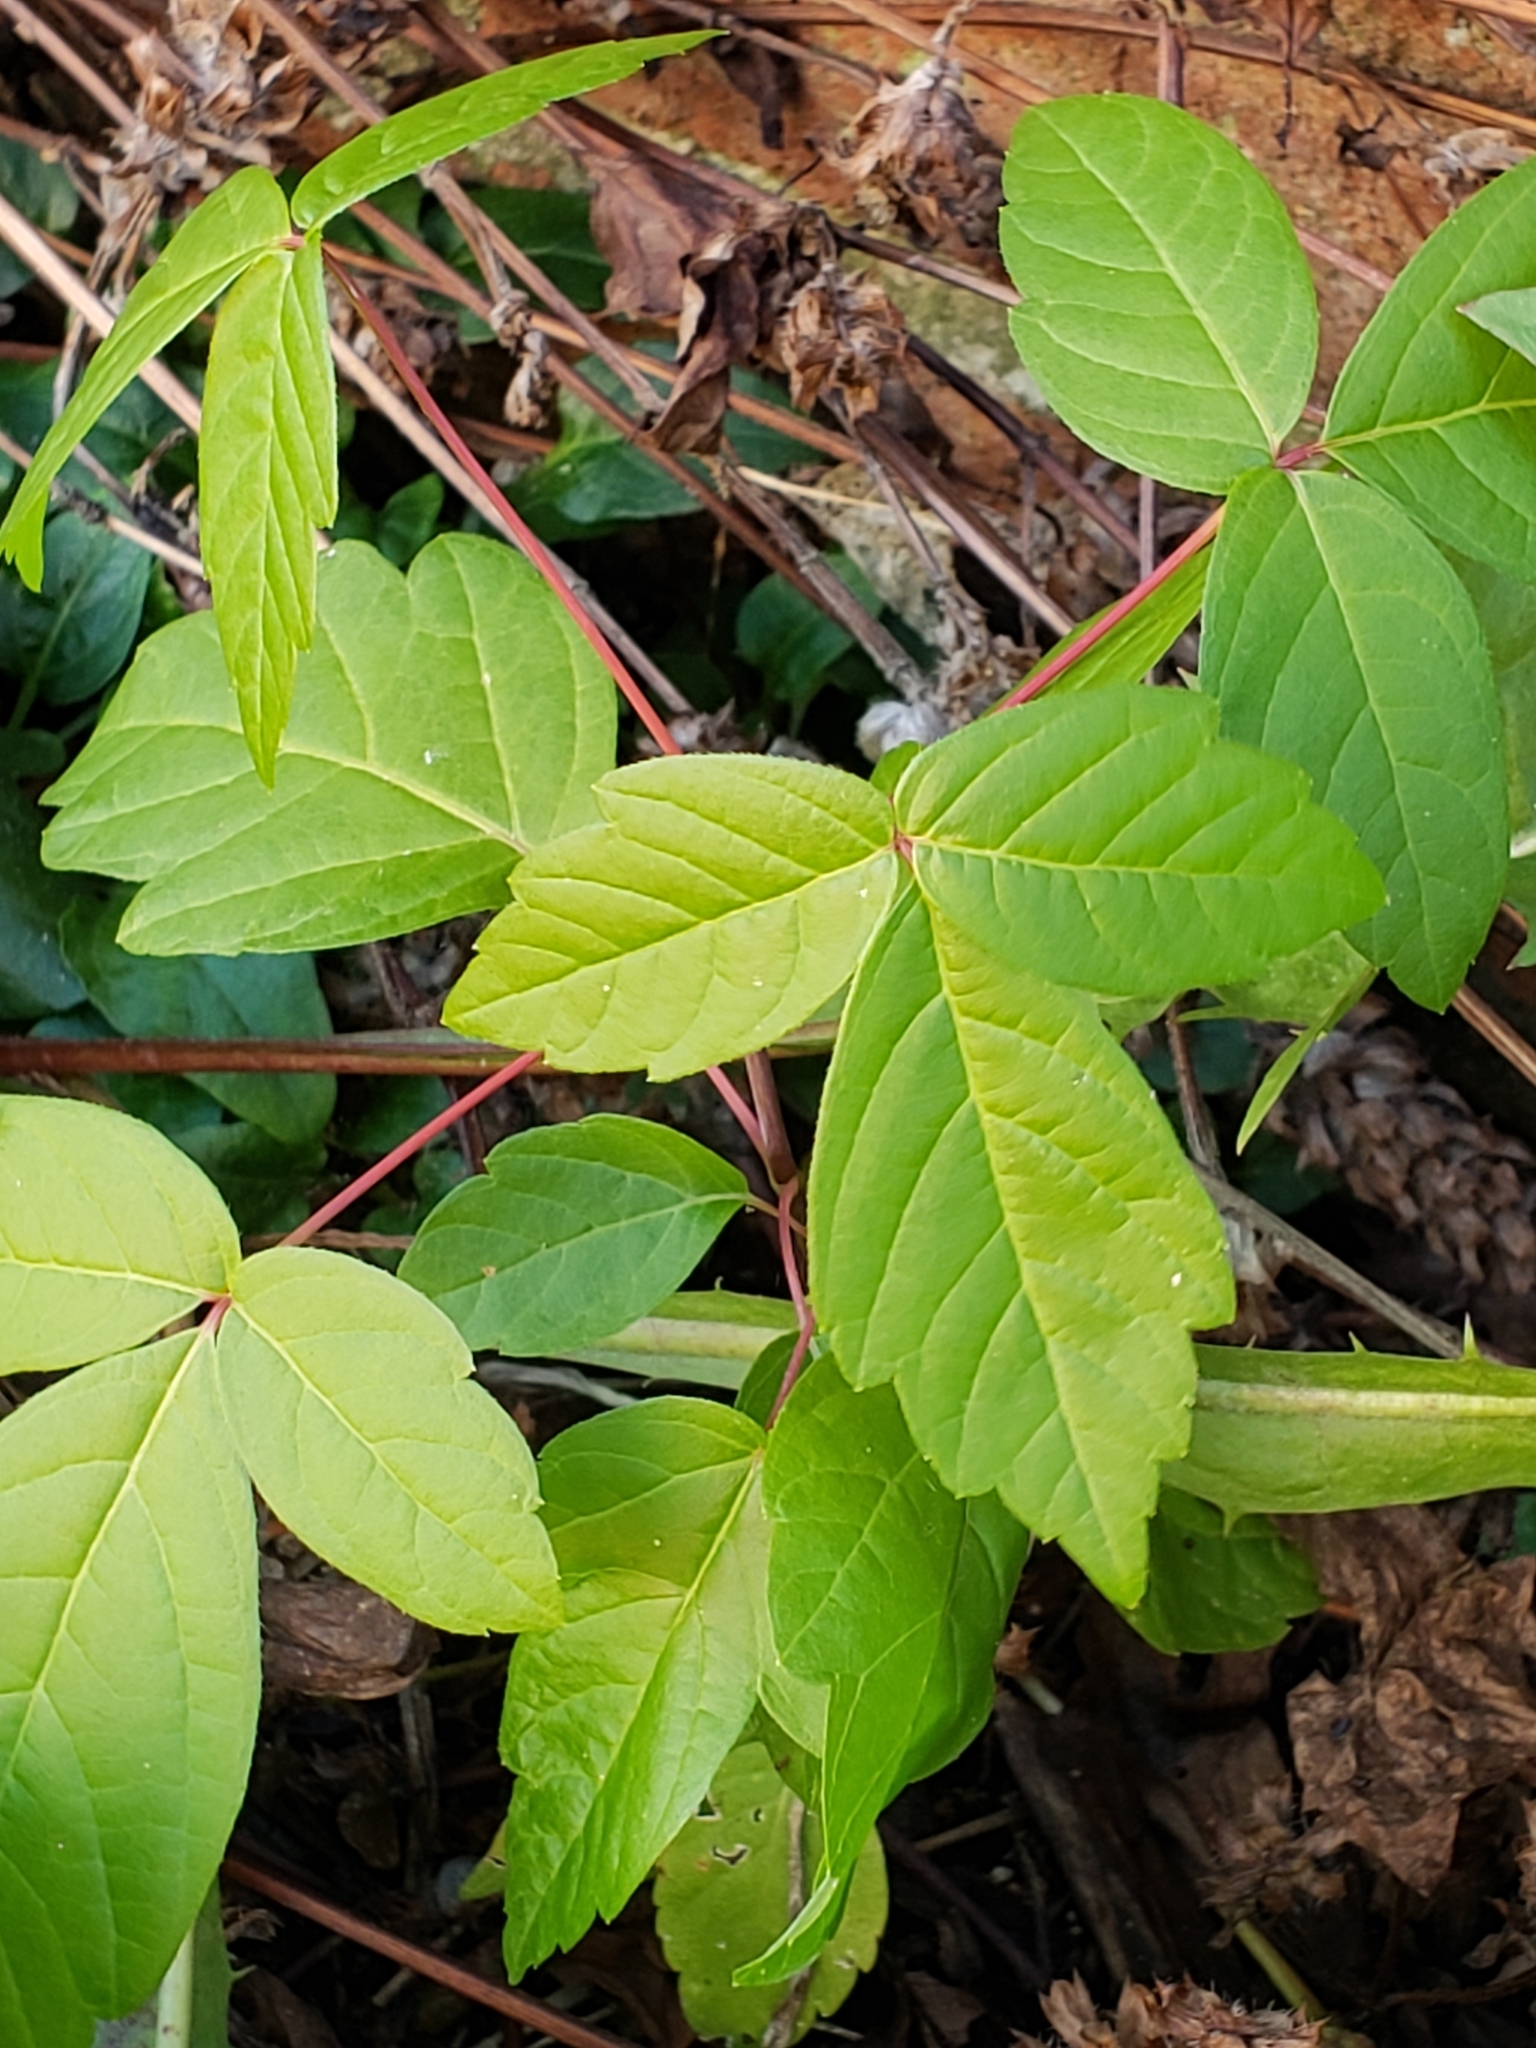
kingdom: Plantae
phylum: Tracheophyta
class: Magnoliopsida
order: Sapindales
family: Anacardiaceae
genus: Toxicodendron
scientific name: Toxicodendron radicans
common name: Poison ivy
